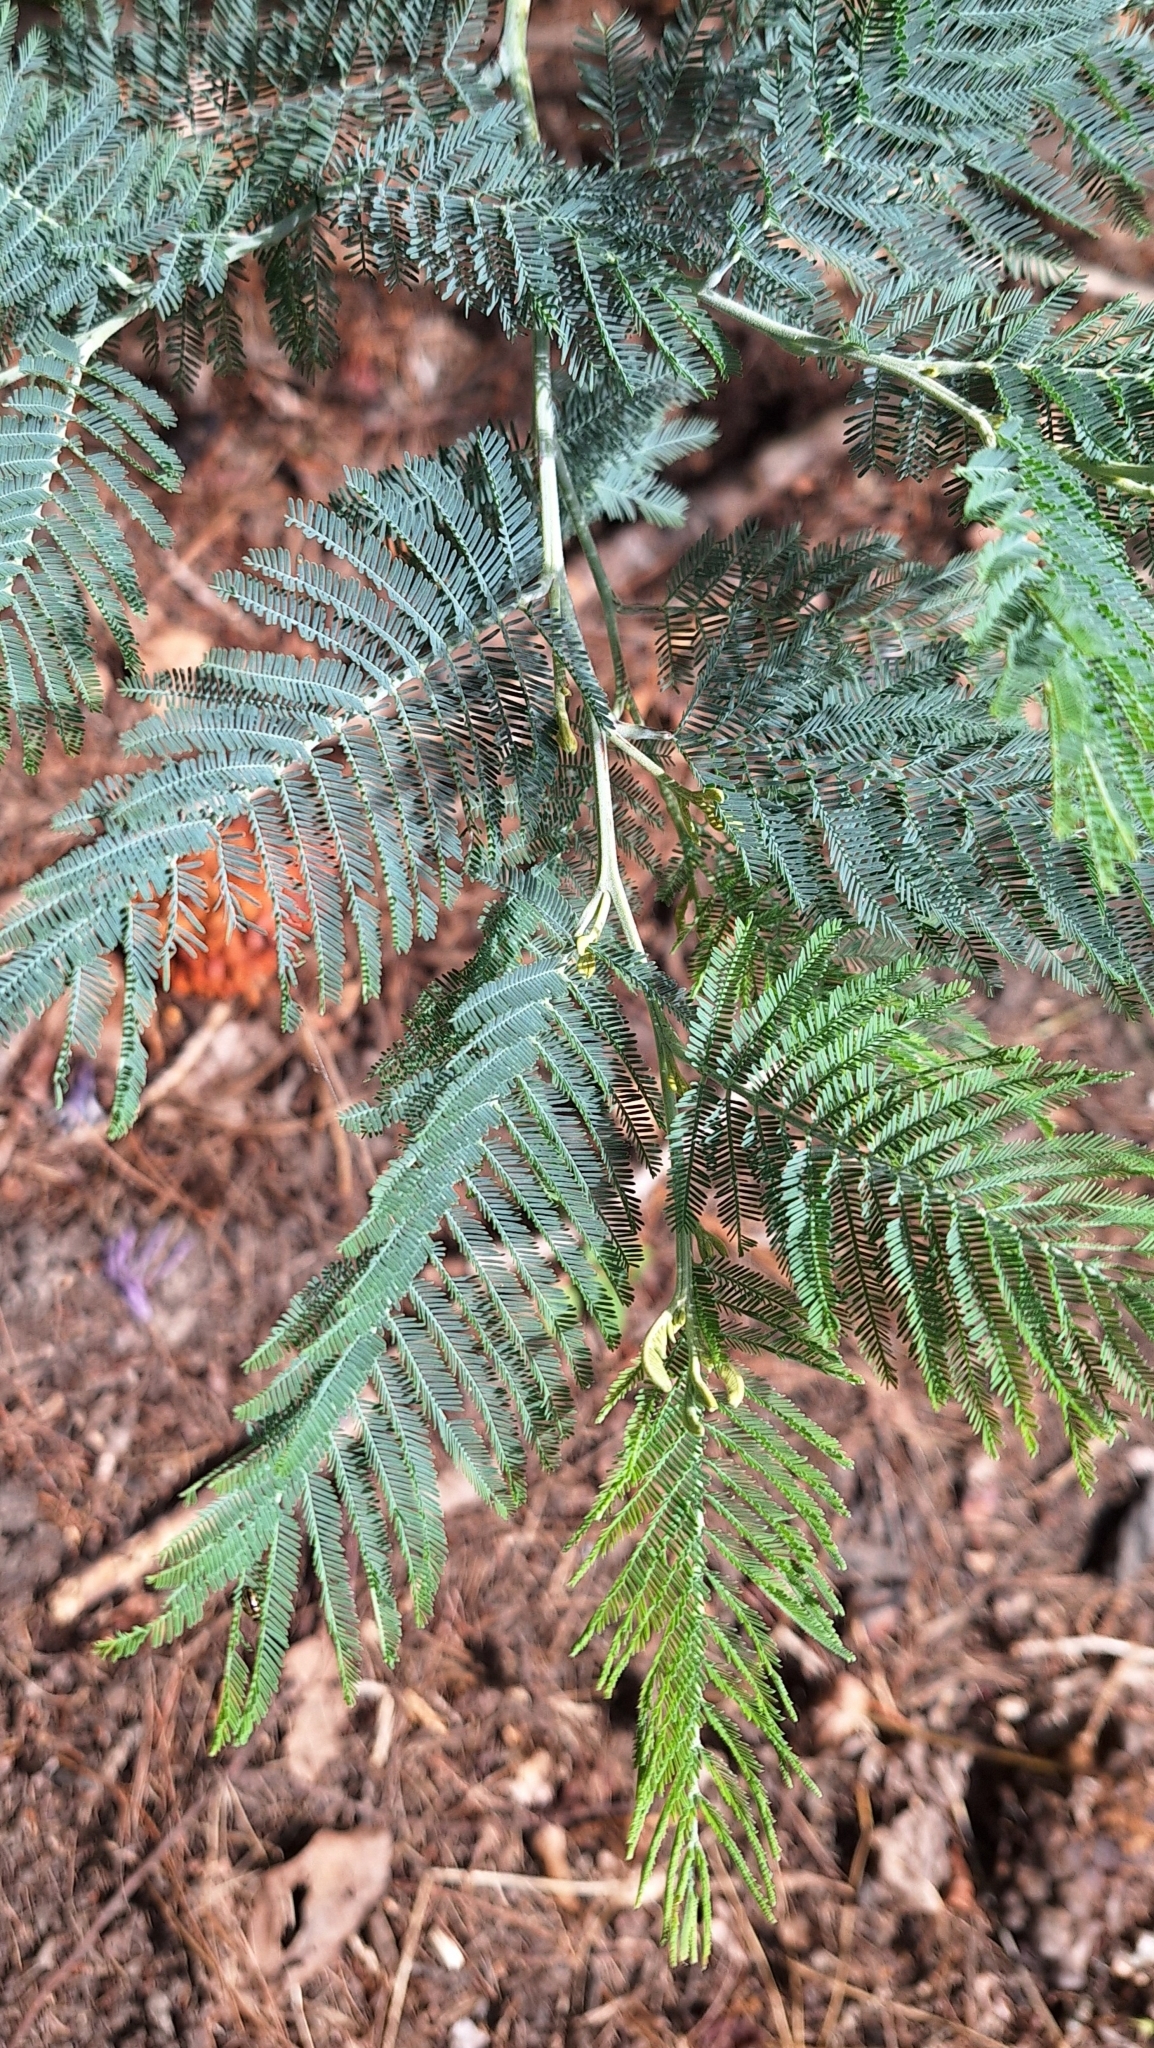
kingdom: Plantae
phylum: Tracheophyta
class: Magnoliopsida
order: Fabales
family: Fabaceae
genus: Acacia
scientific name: Acacia dealbata
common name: Silver wattle
